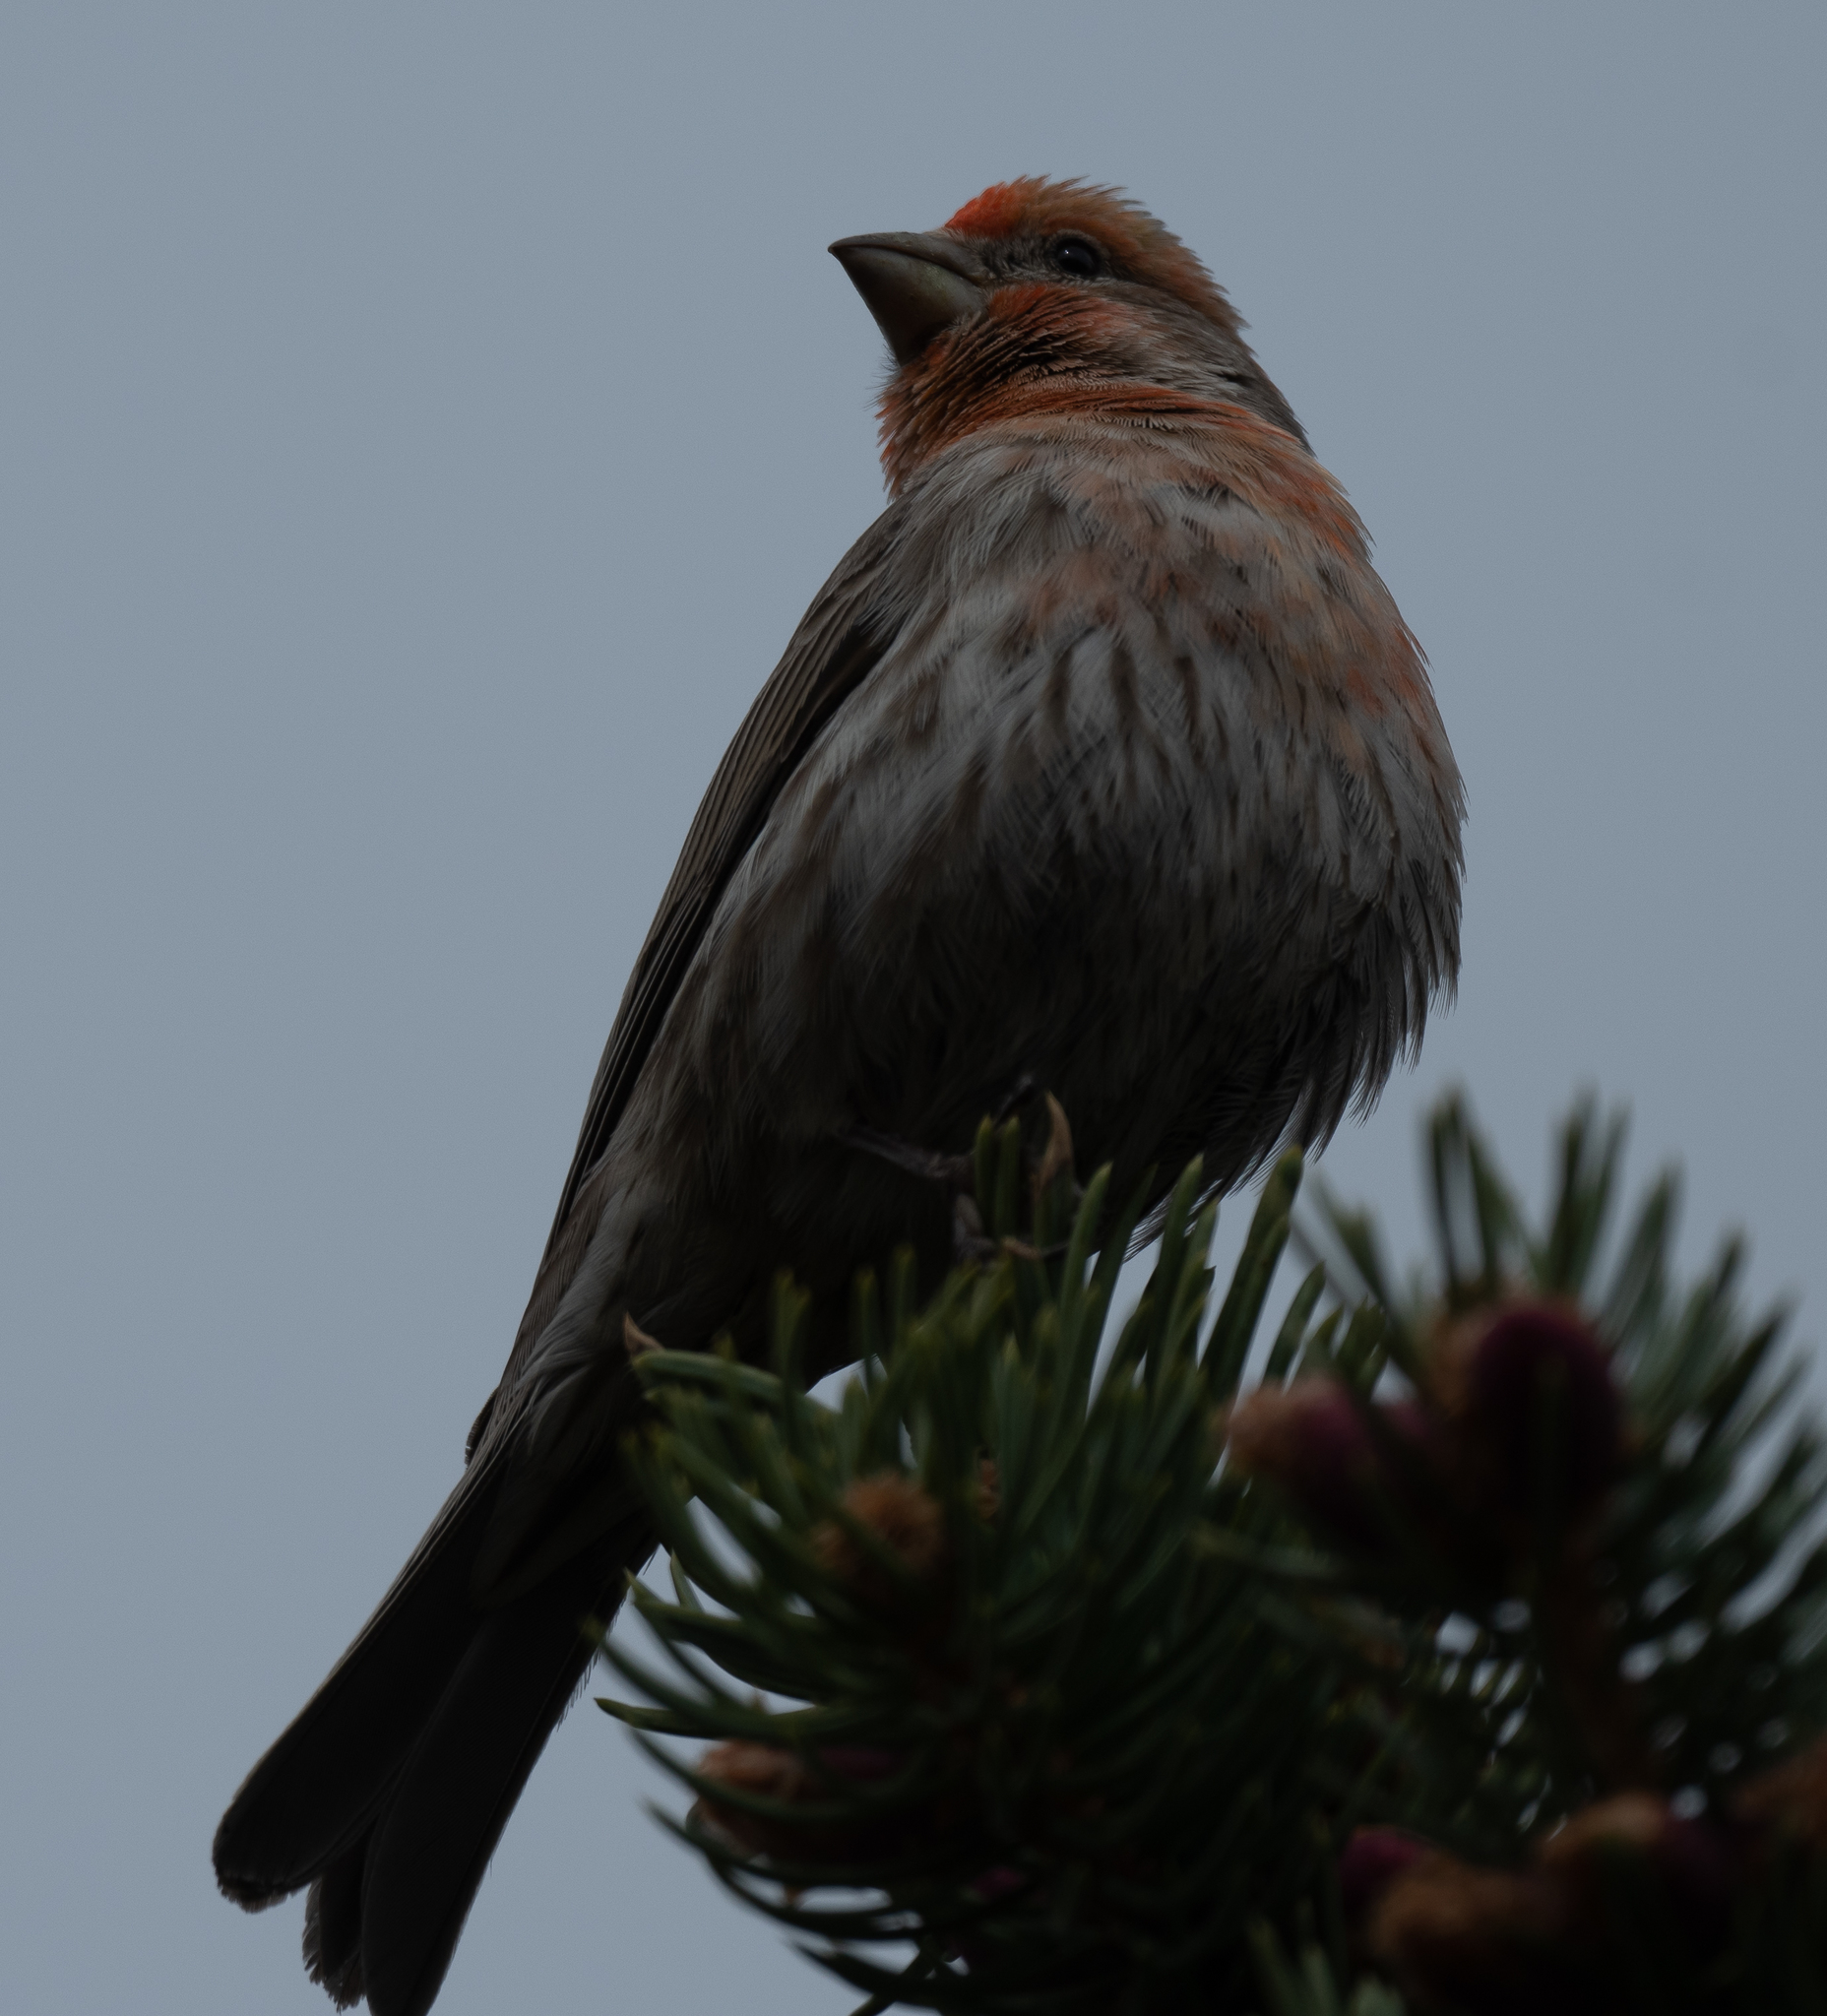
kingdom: Animalia
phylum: Chordata
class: Aves
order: Passeriformes
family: Fringillidae
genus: Haemorhous
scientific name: Haemorhous mexicanus
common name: House finch
